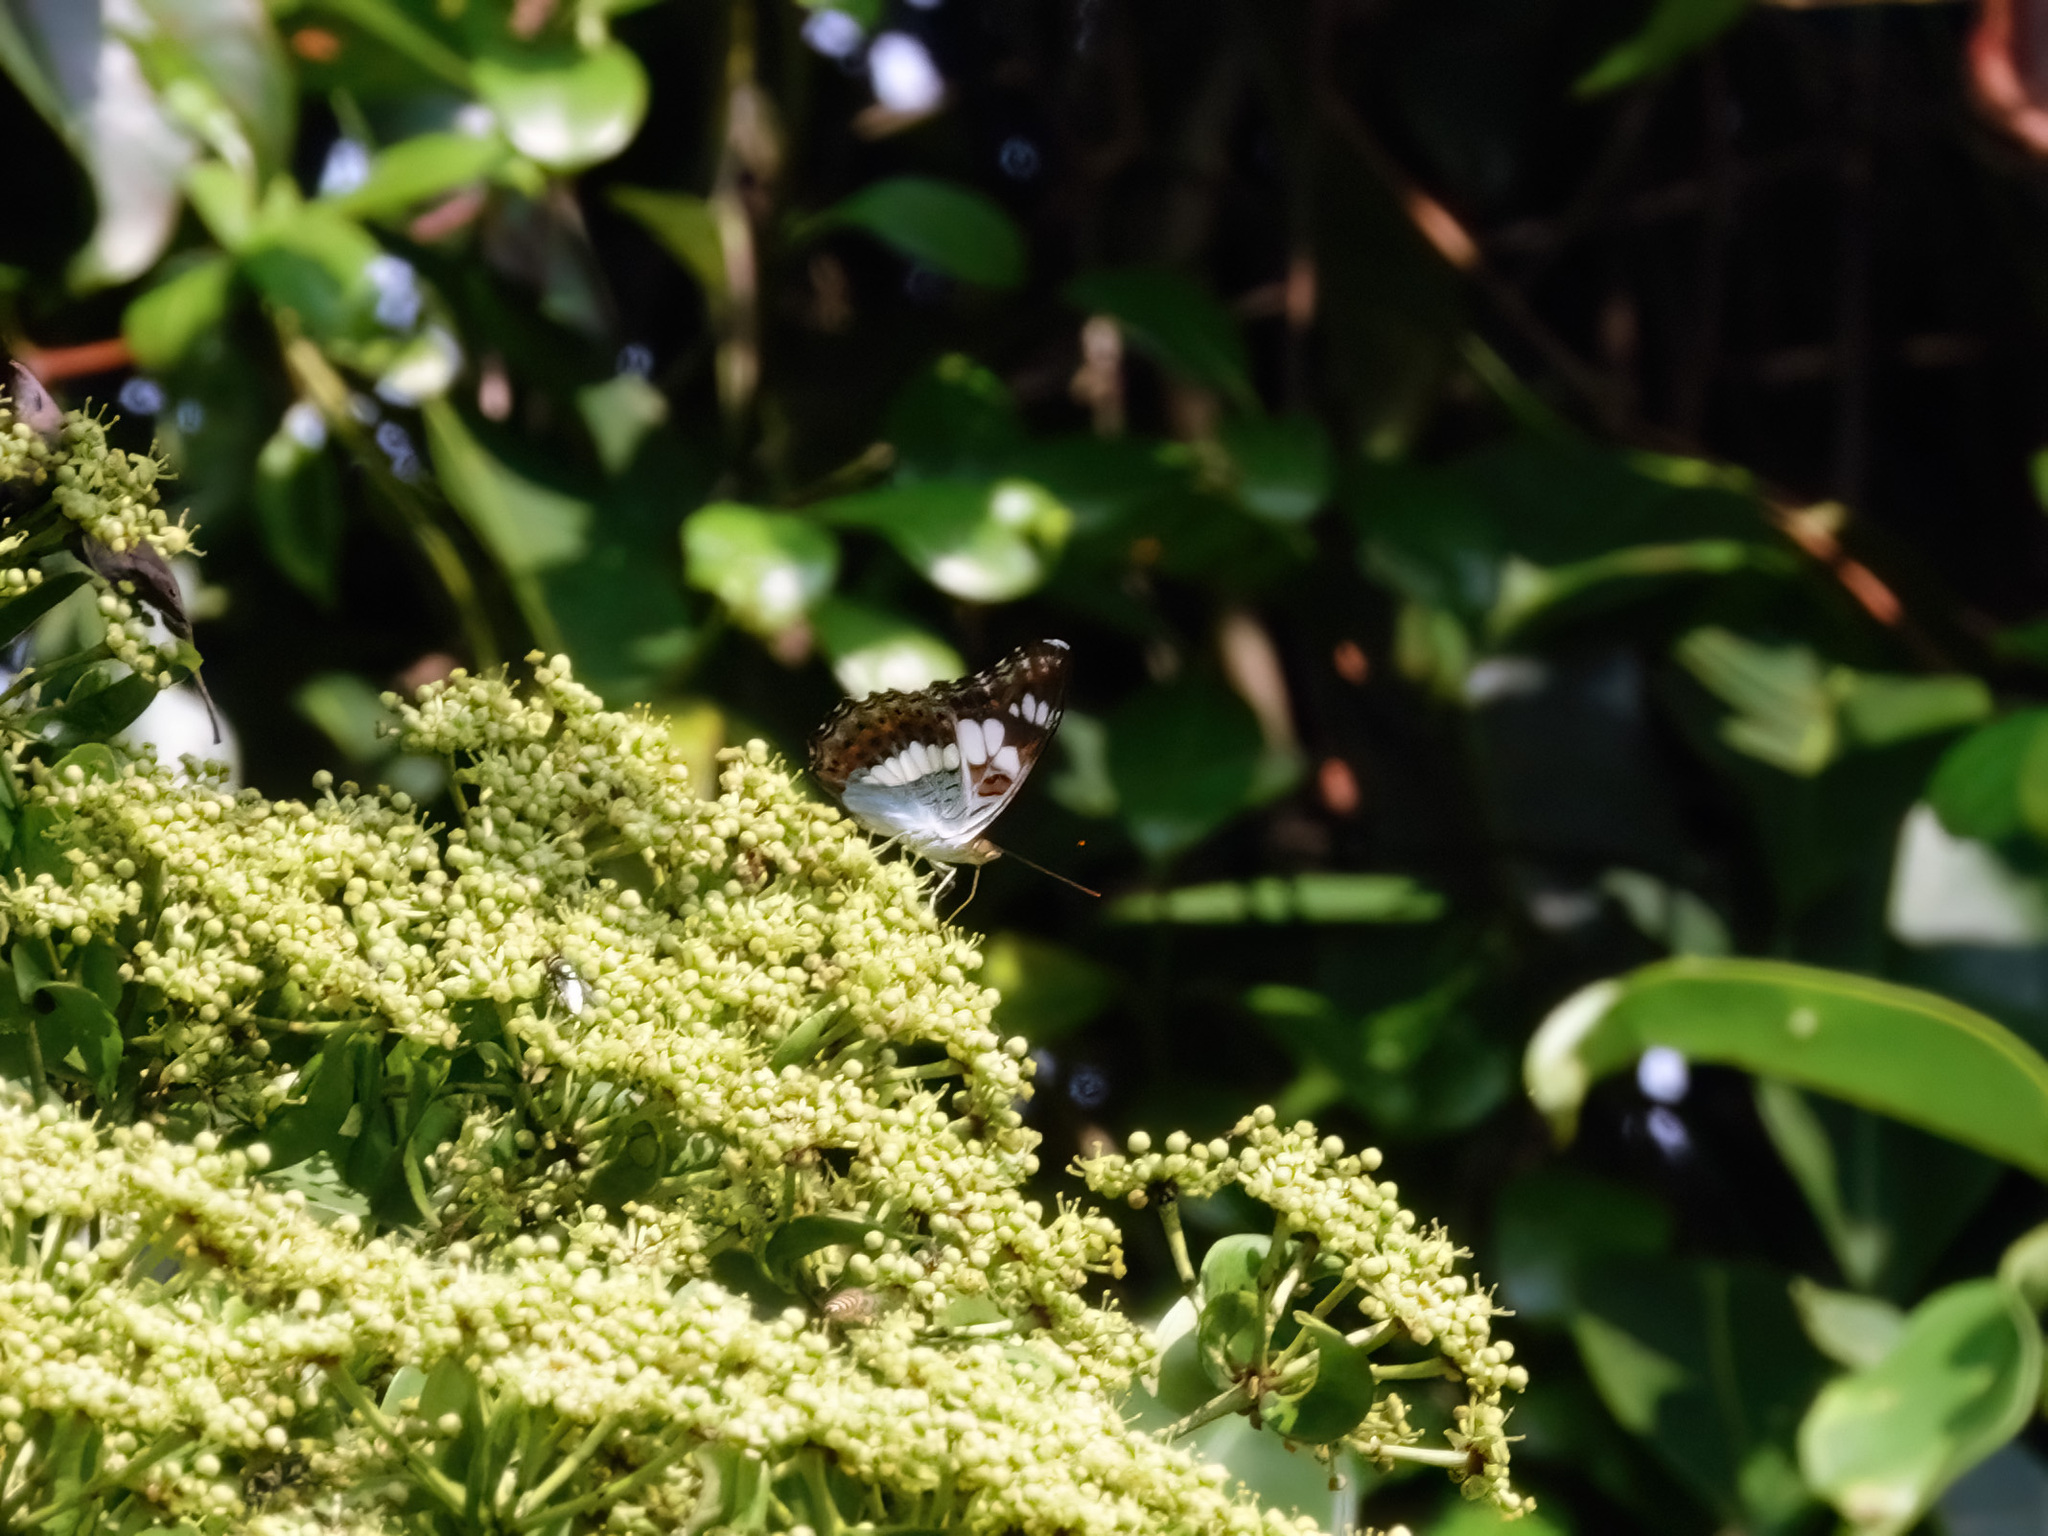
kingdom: Animalia
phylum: Arthropoda
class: Insecta
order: Lepidoptera
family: Nymphalidae
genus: Limenitis
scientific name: Limenitis Moduza procris
